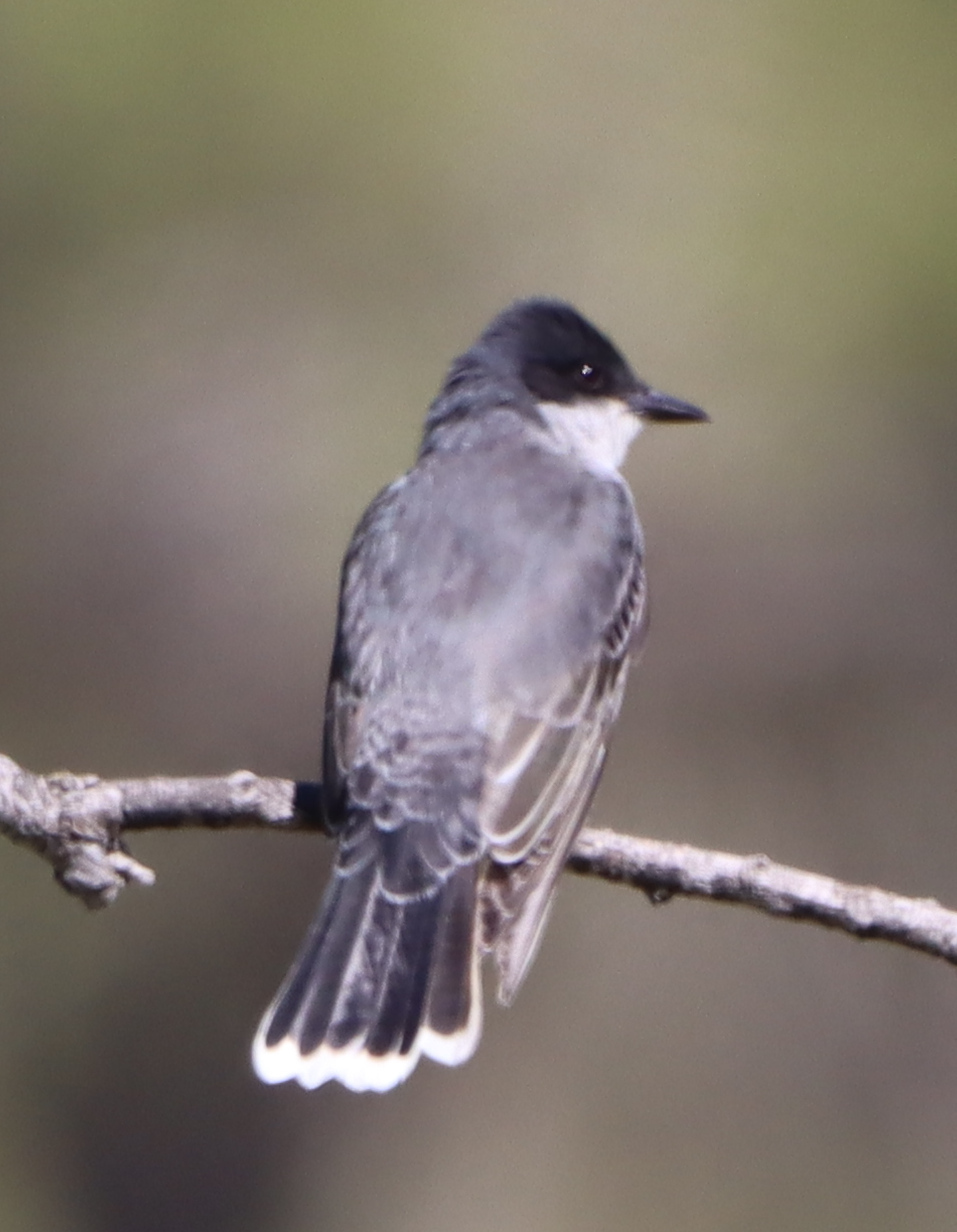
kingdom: Animalia
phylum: Chordata
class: Aves
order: Passeriformes
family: Tyrannidae
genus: Tyrannus
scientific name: Tyrannus tyrannus
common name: Eastern kingbird
